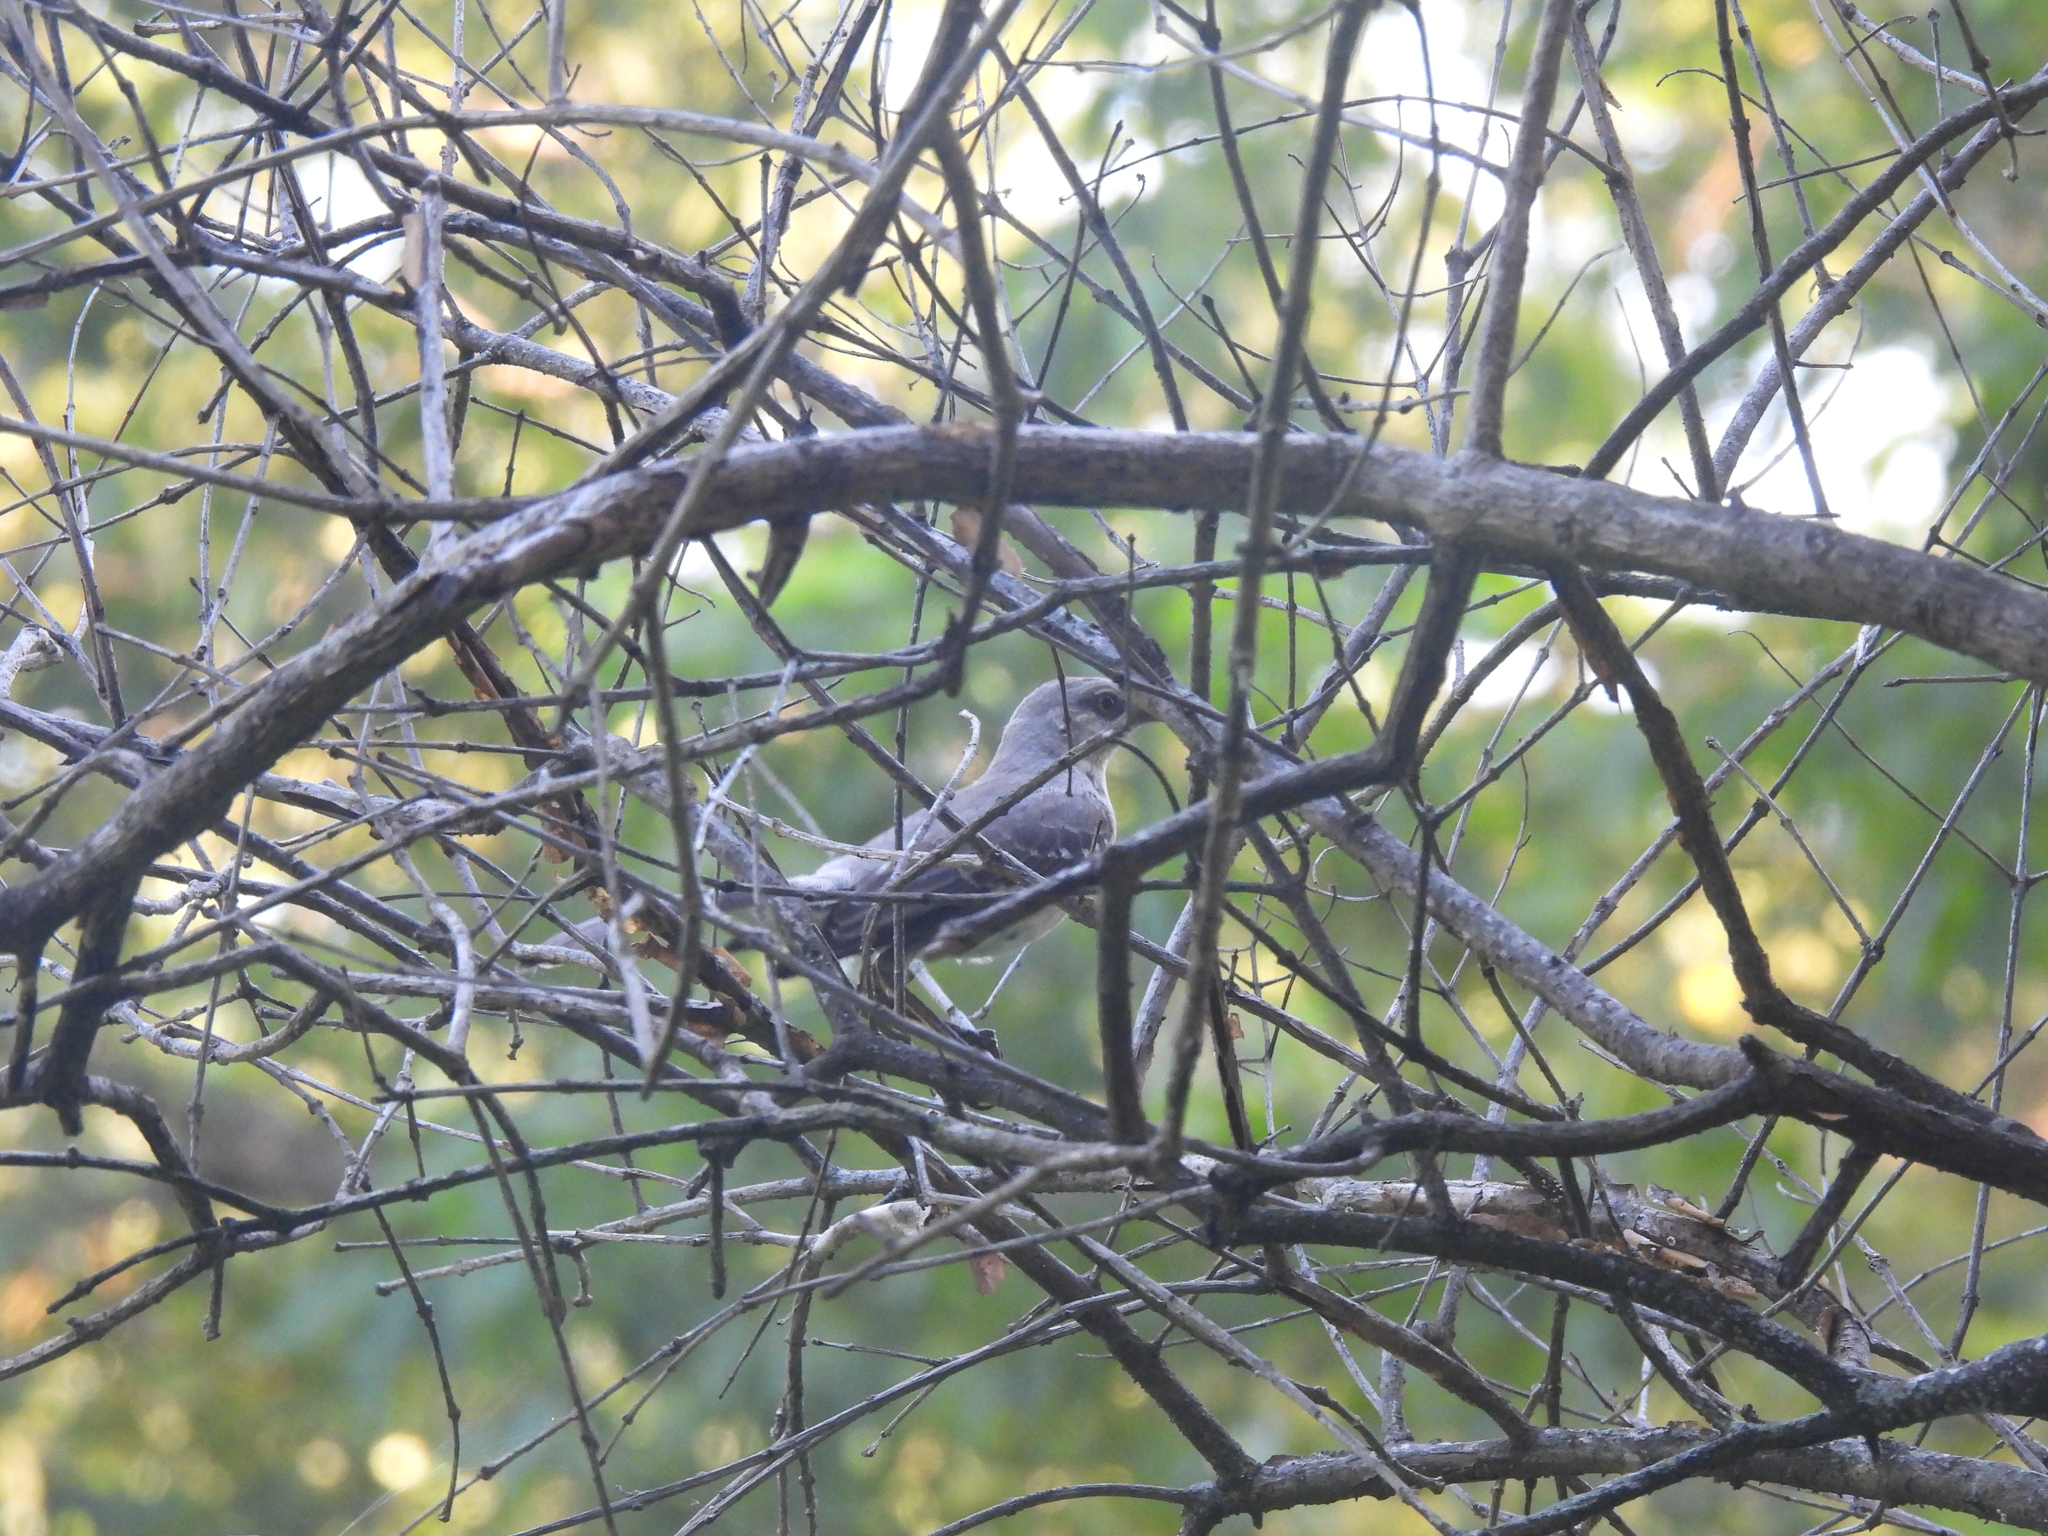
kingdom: Animalia
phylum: Chordata
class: Aves
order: Passeriformes
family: Mimidae
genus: Mimus
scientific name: Mimus polyglottos
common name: Northern mockingbird
